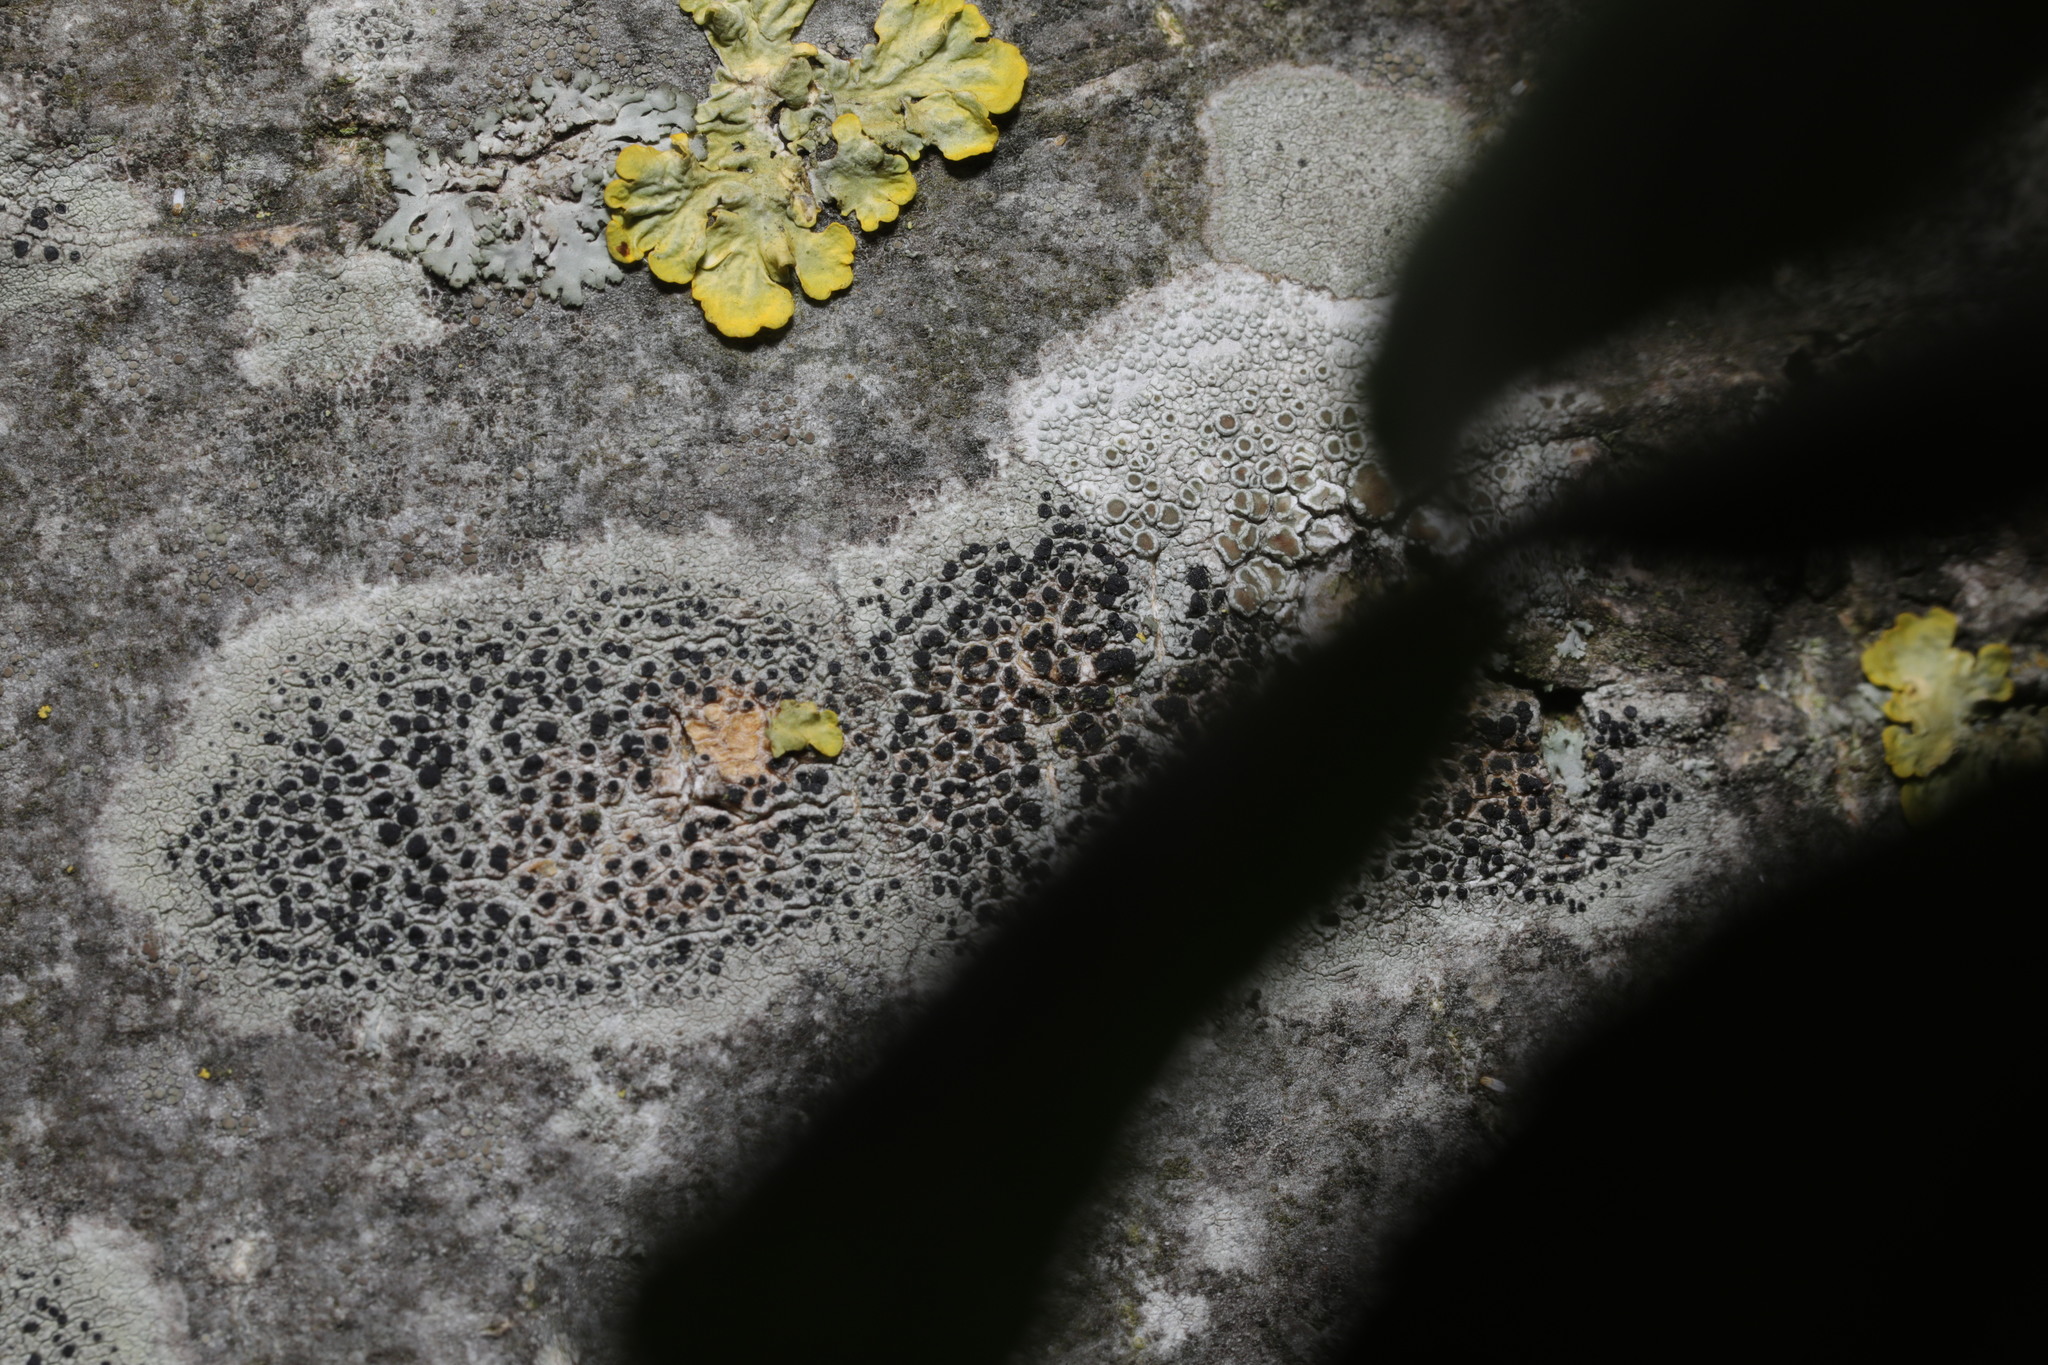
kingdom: Fungi
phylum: Ascomycota
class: Lecanoromycetes
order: Lecanorales
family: Lecanoraceae
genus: Lecidella
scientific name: Lecidella elaeochroma
